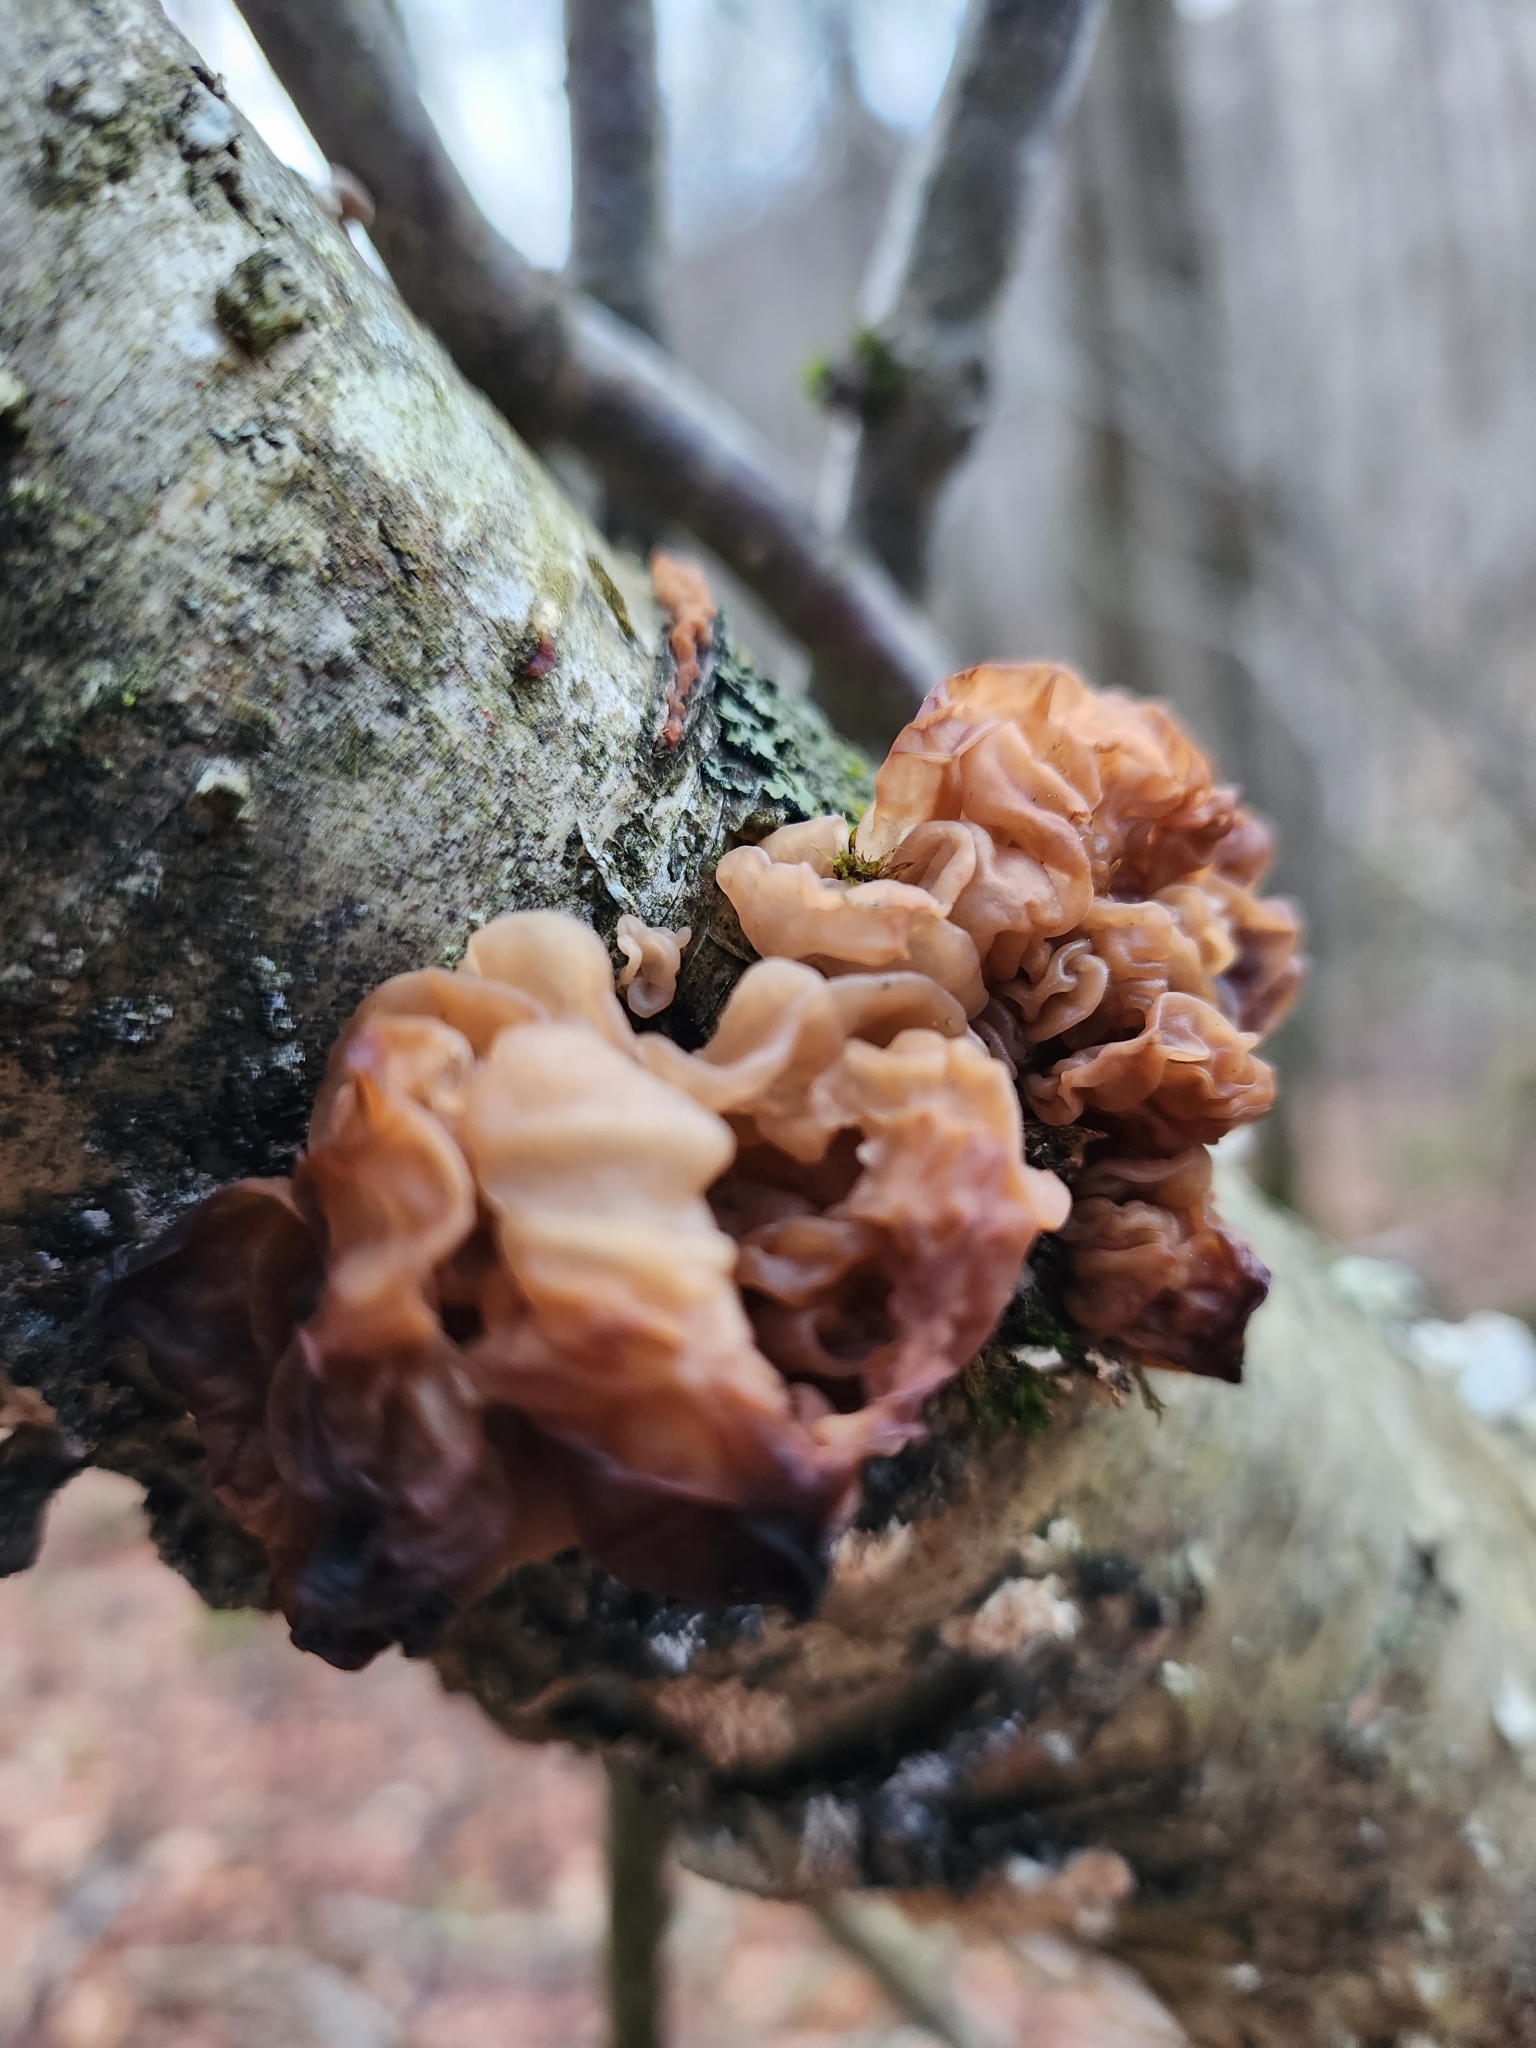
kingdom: Fungi
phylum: Basidiomycota
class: Tremellomycetes
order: Tremellales
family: Tremellaceae
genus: Phaeotremella
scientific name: Phaeotremella frondosa
